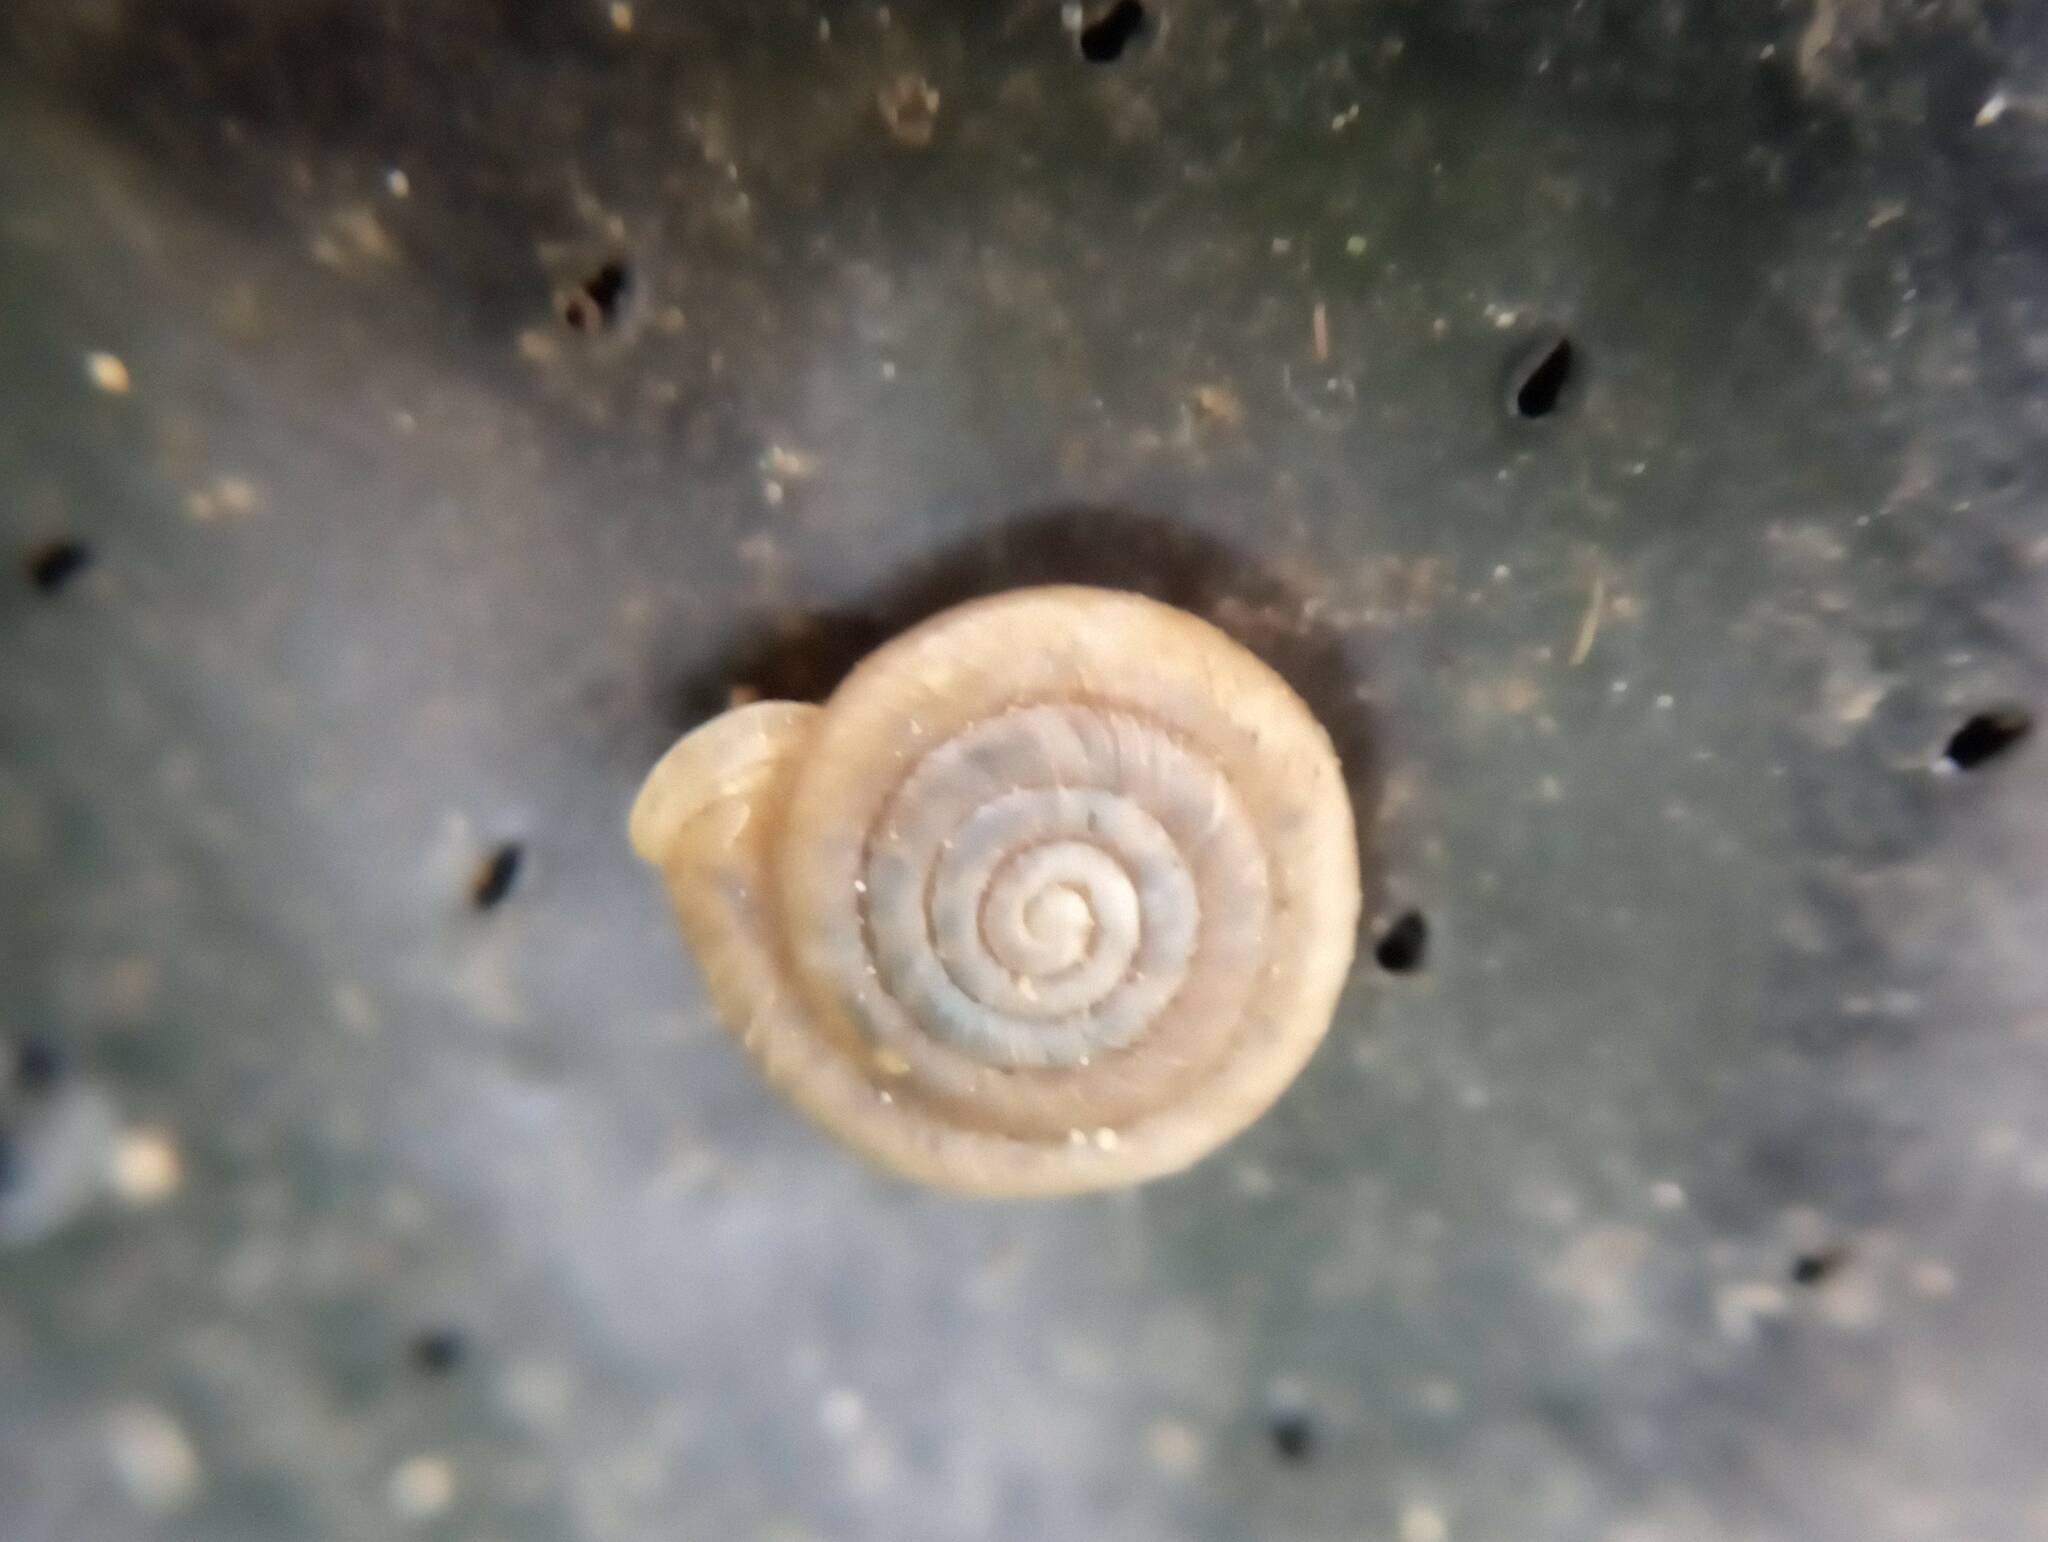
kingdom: Animalia
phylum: Mollusca
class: Gastropoda
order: Stylommatophora
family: Polygyridae
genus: Polygyra
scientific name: Polygyra cereolus
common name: Southern flatcone snail
